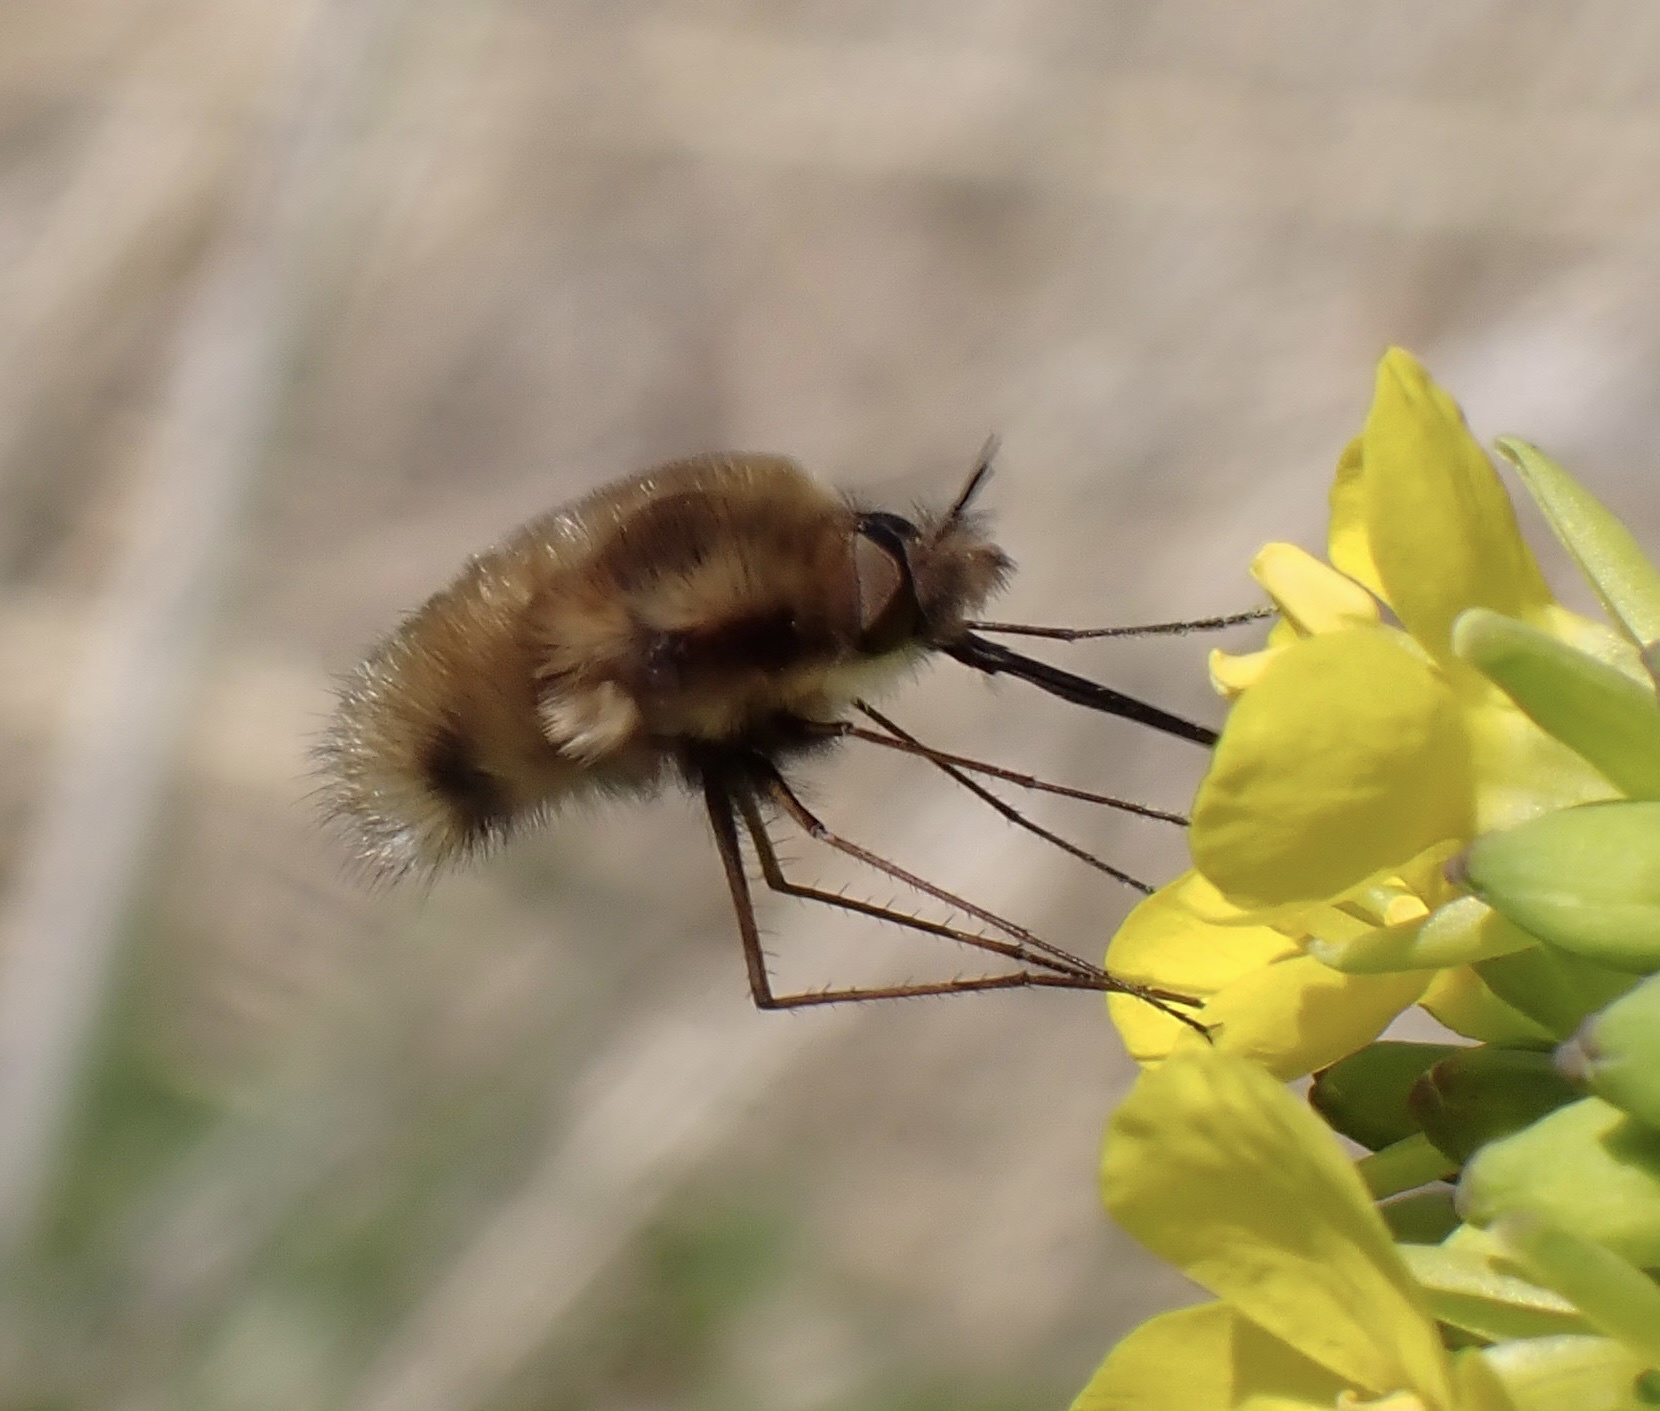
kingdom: Animalia
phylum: Arthropoda
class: Insecta
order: Diptera
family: Bombyliidae
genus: Bombylius
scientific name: Bombylius major
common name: Bee fly
